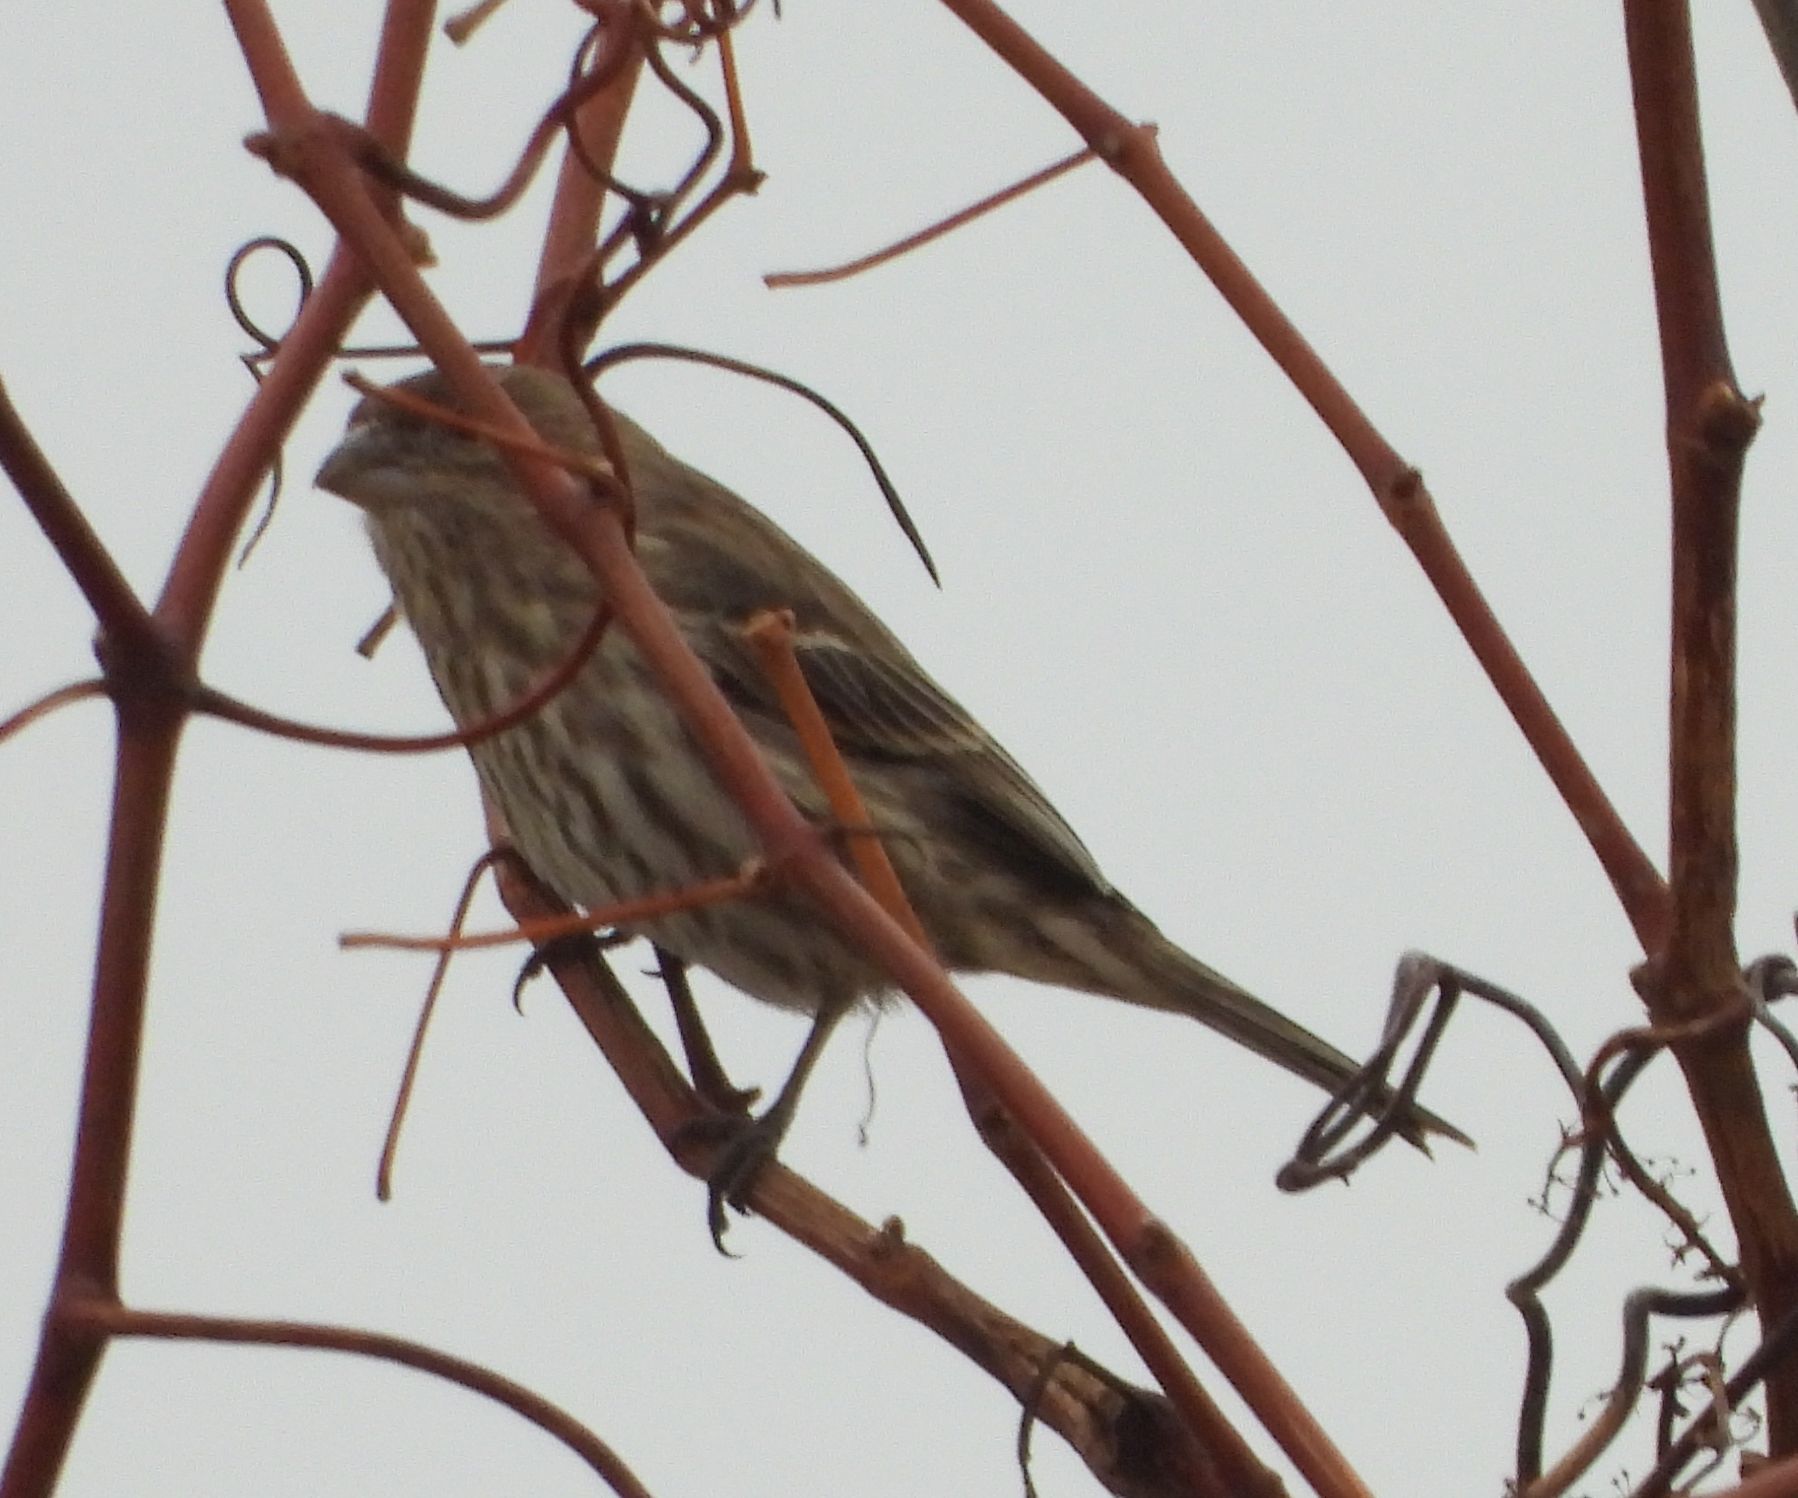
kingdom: Animalia
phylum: Chordata
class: Aves
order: Passeriformes
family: Fringillidae
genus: Haemorhous
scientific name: Haemorhous mexicanus
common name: House finch
